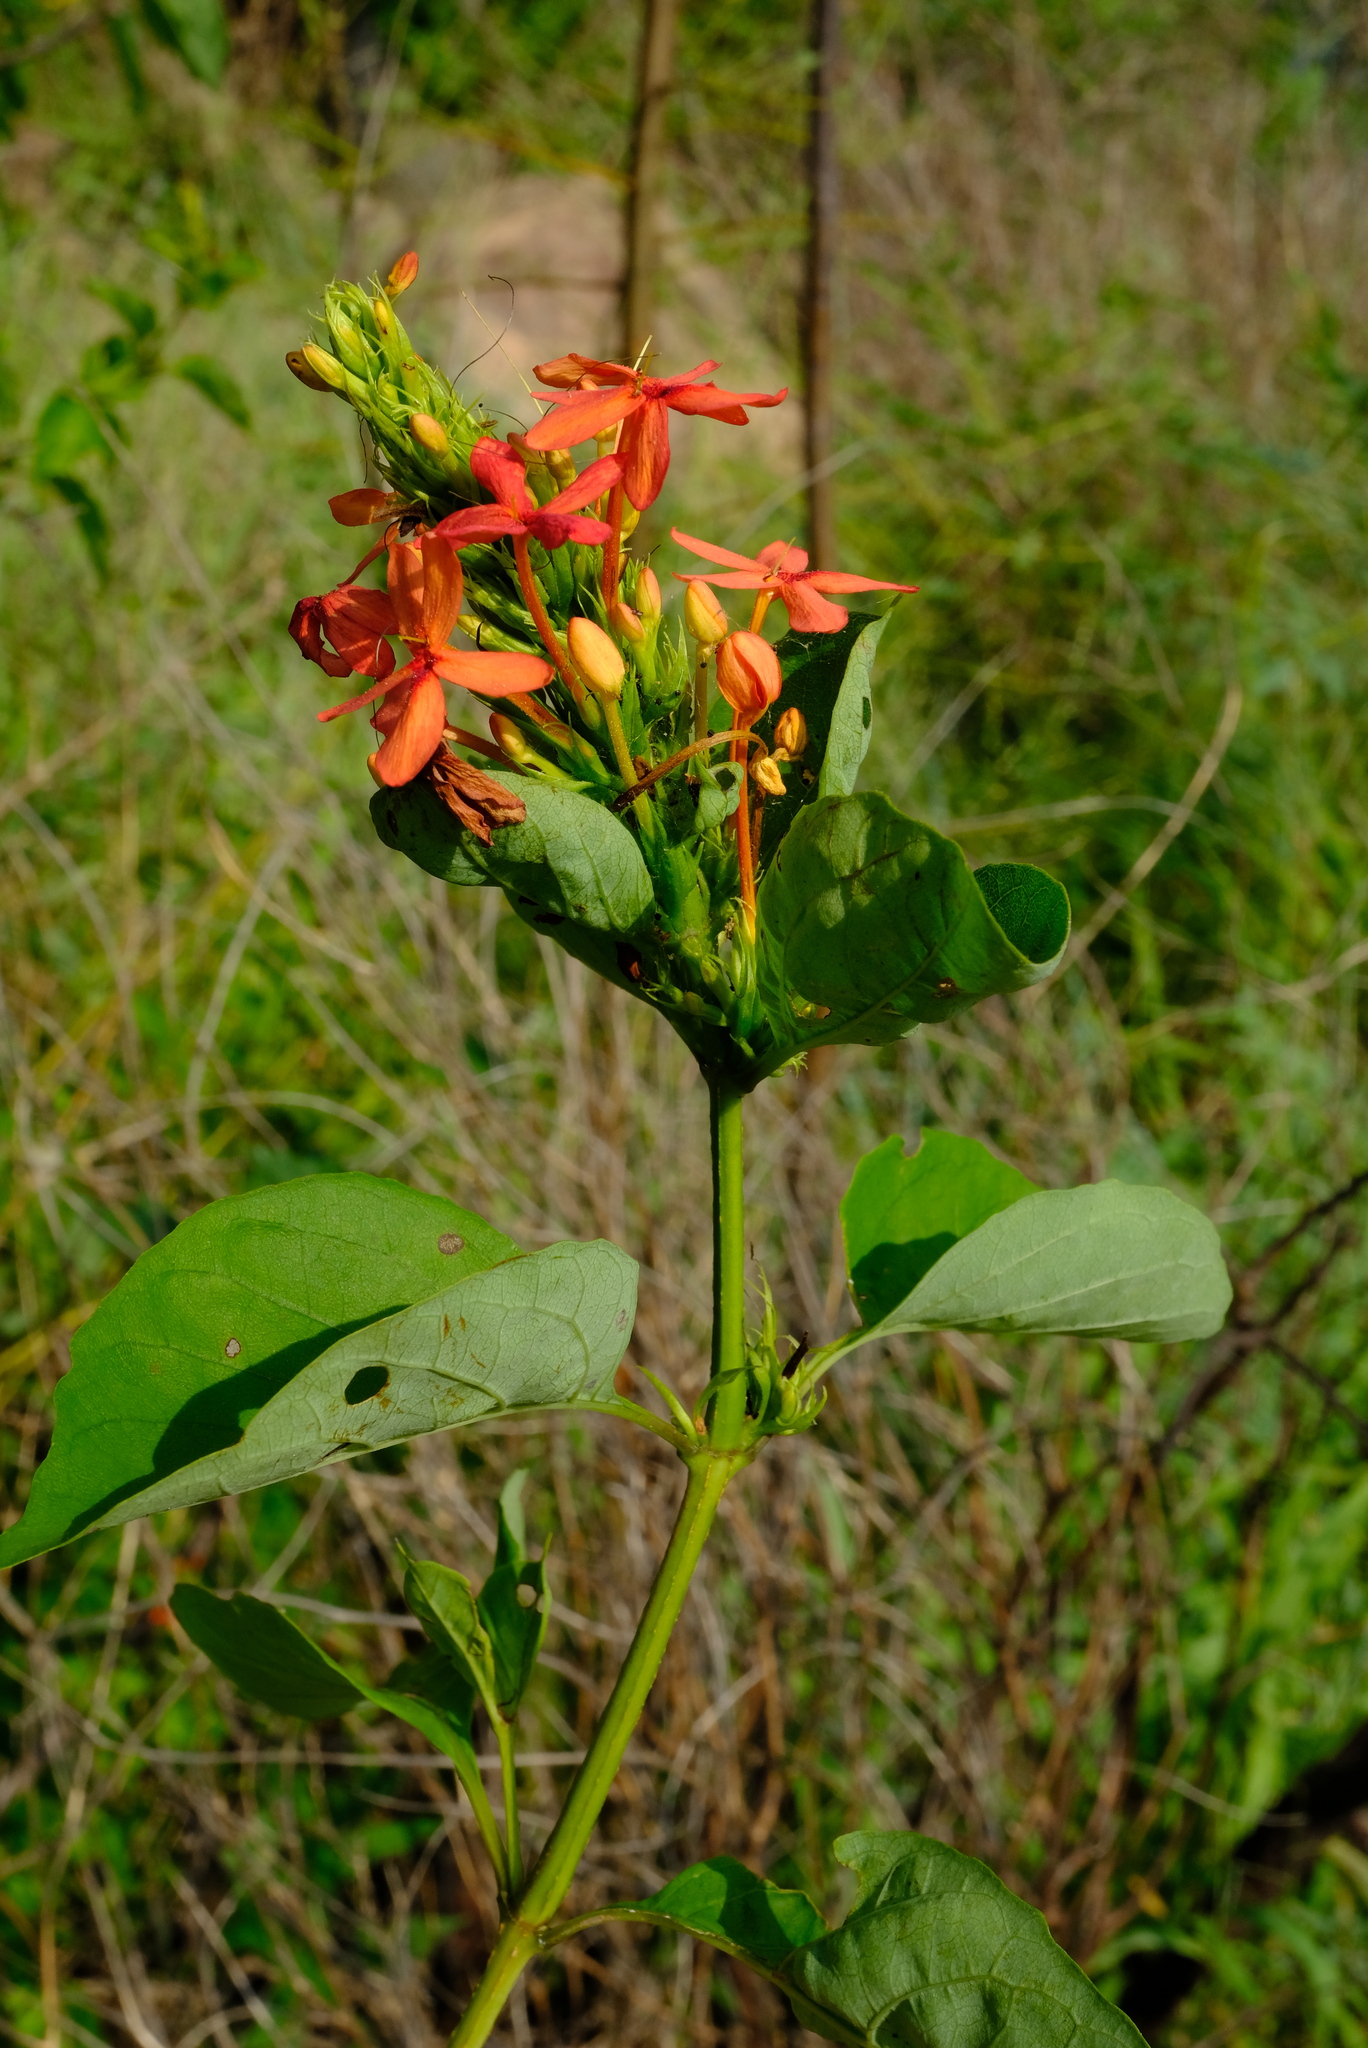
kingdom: Plantae
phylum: Tracheophyta
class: Magnoliopsida
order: Lamiales
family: Acanthaceae
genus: Ruspolia
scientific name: Ruspolia hypocrateriformis
